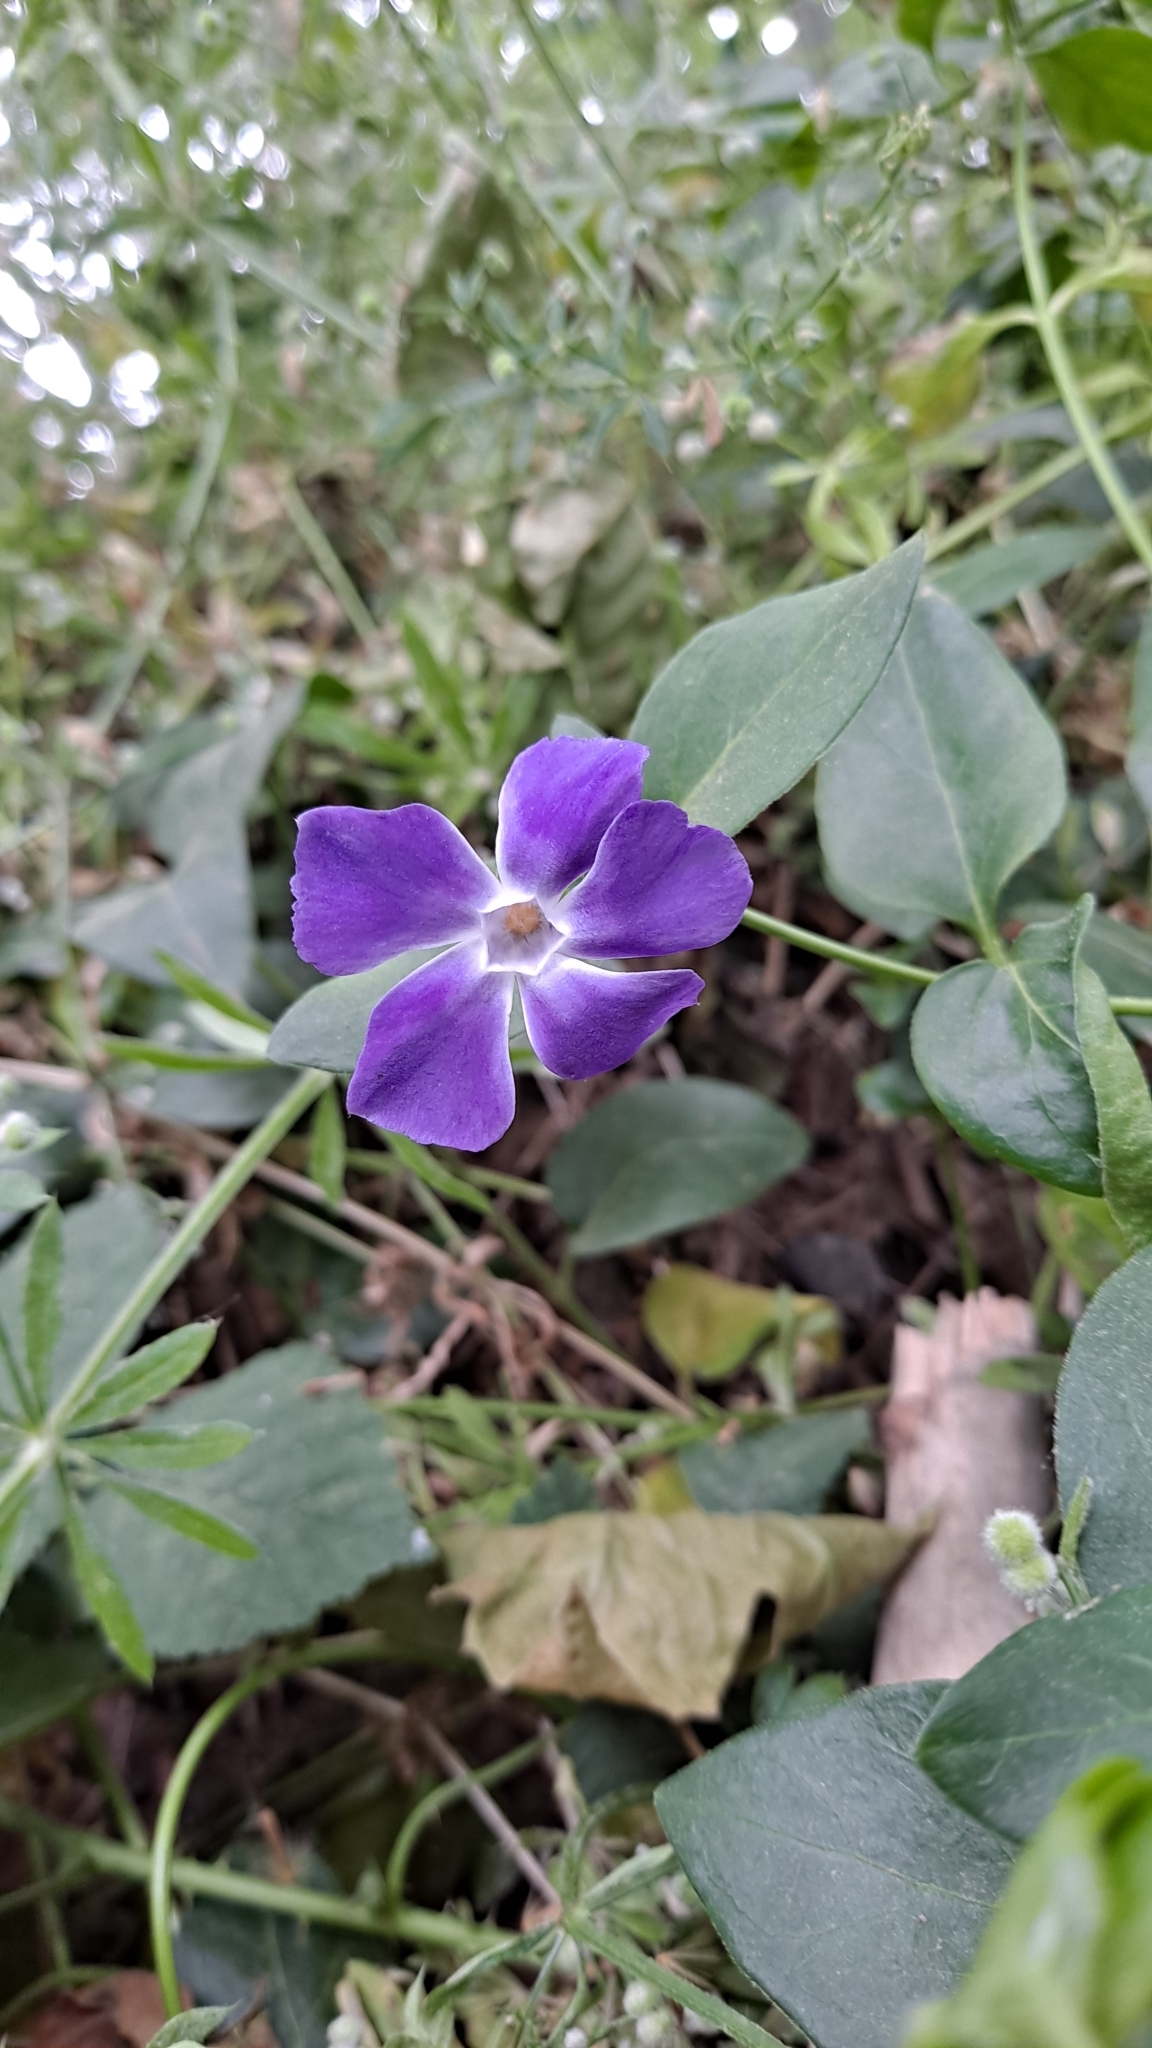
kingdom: Plantae
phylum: Tracheophyta
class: Magnoliopsida
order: Gentianales
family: Apocynaceae
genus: Vinca
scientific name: Vinca major
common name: Greater periwinkle
